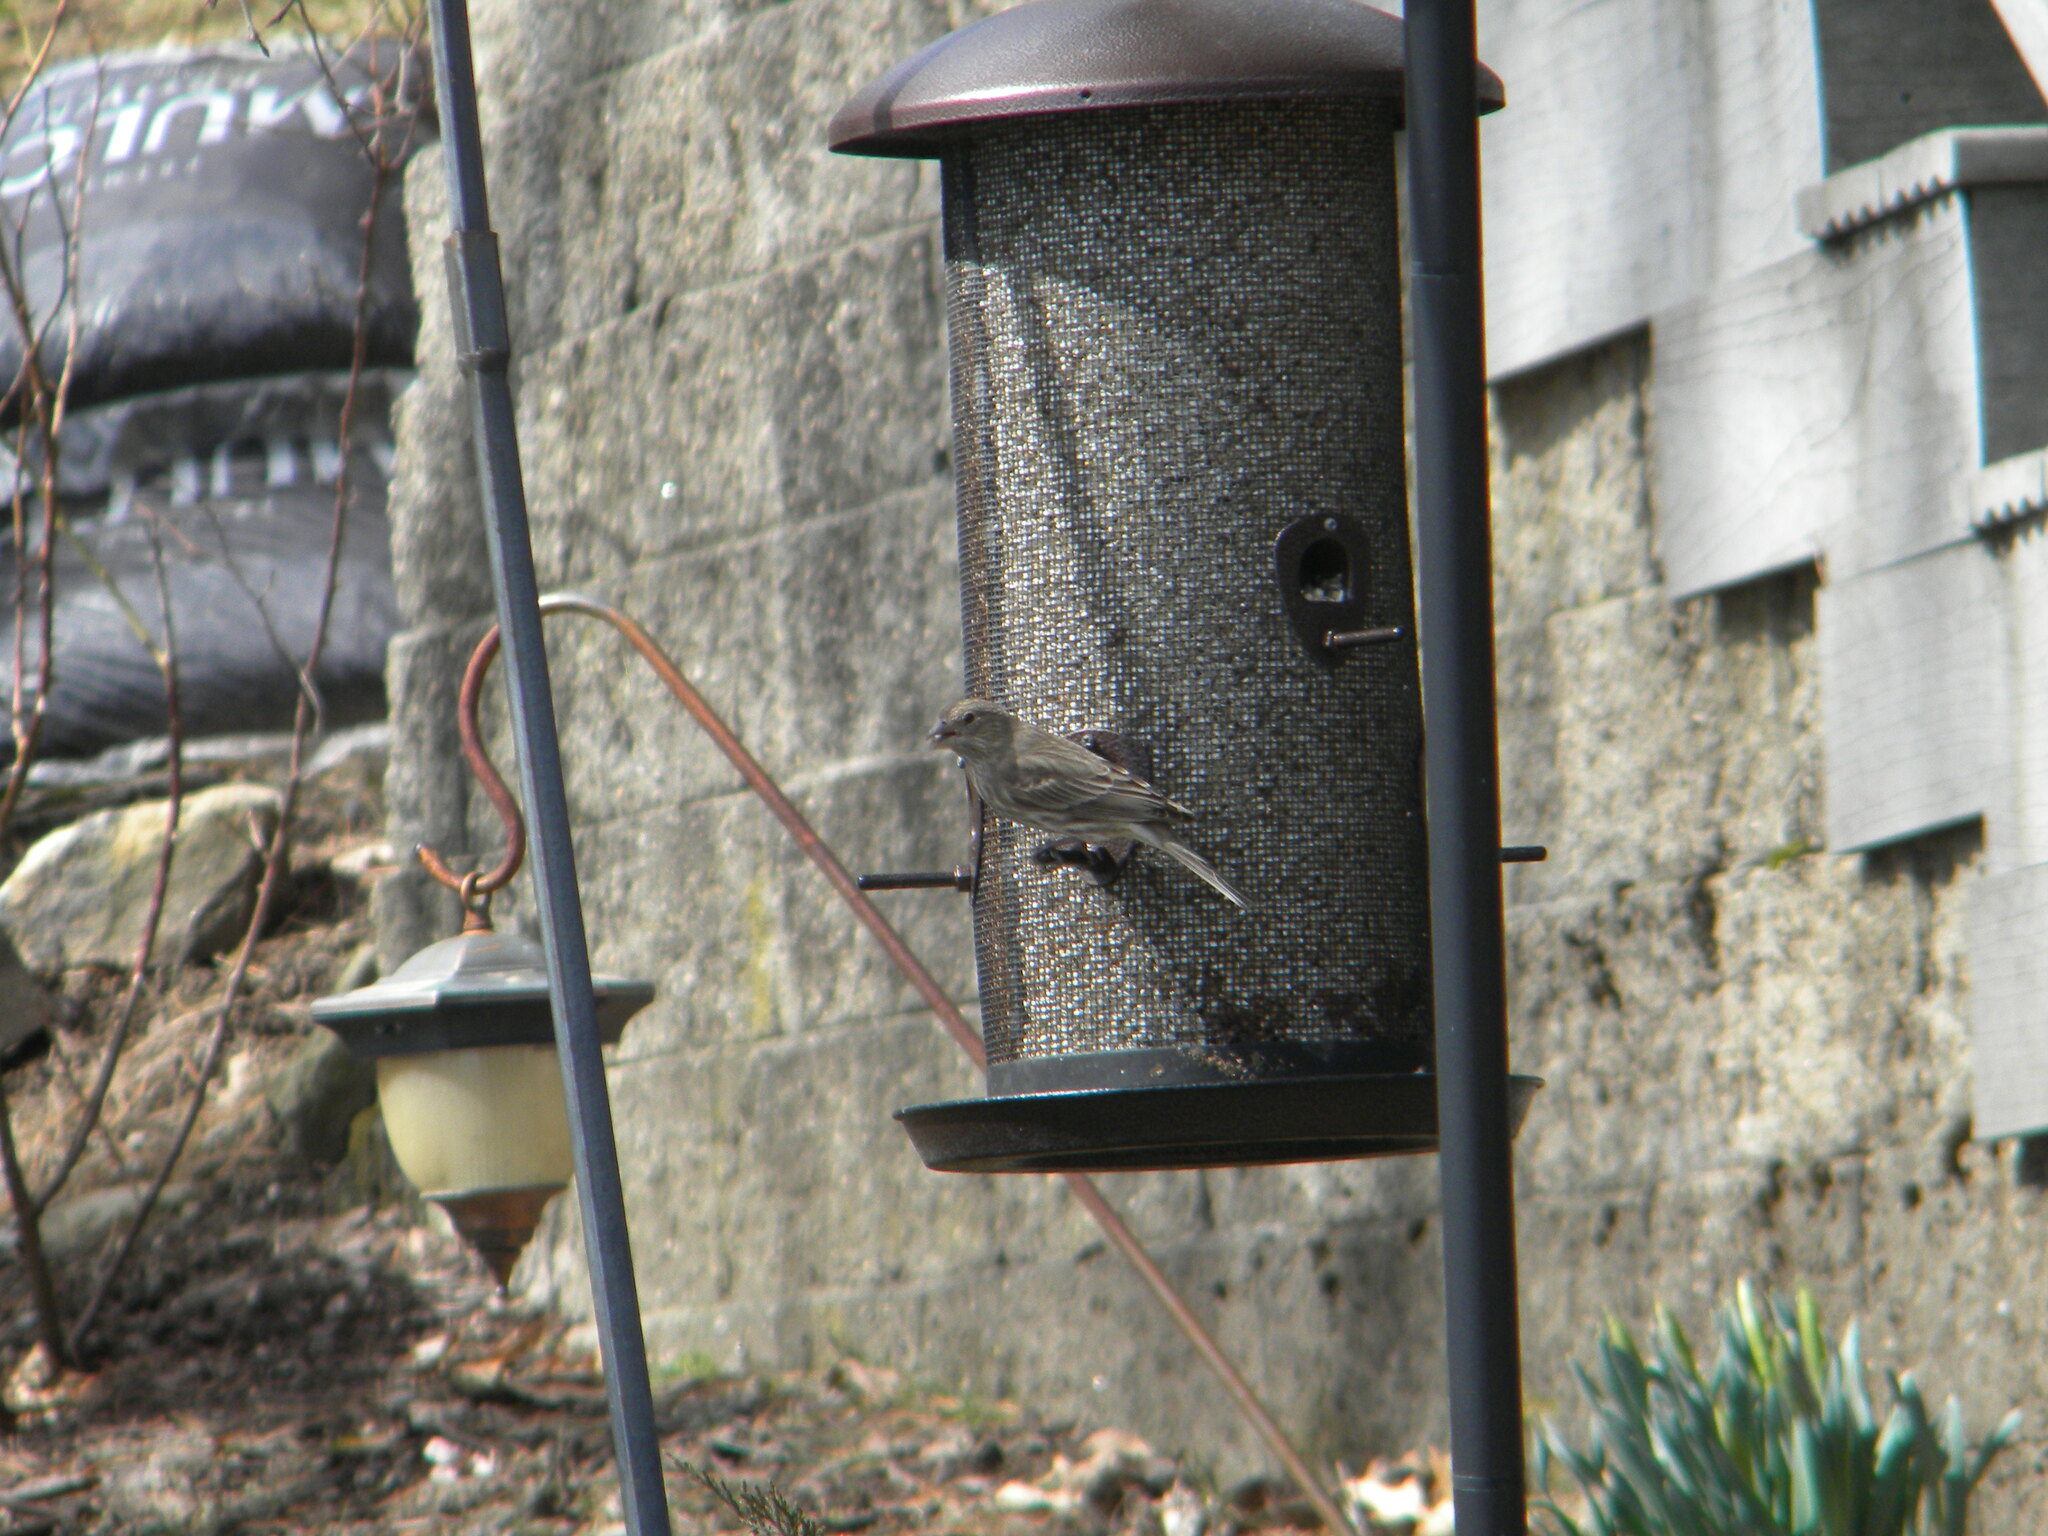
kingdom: Animalia
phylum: Chordata
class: Aves
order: Passeriformes
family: Fringillidae
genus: Haemorhous
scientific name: Haemorhous mexicanus
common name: House finch
